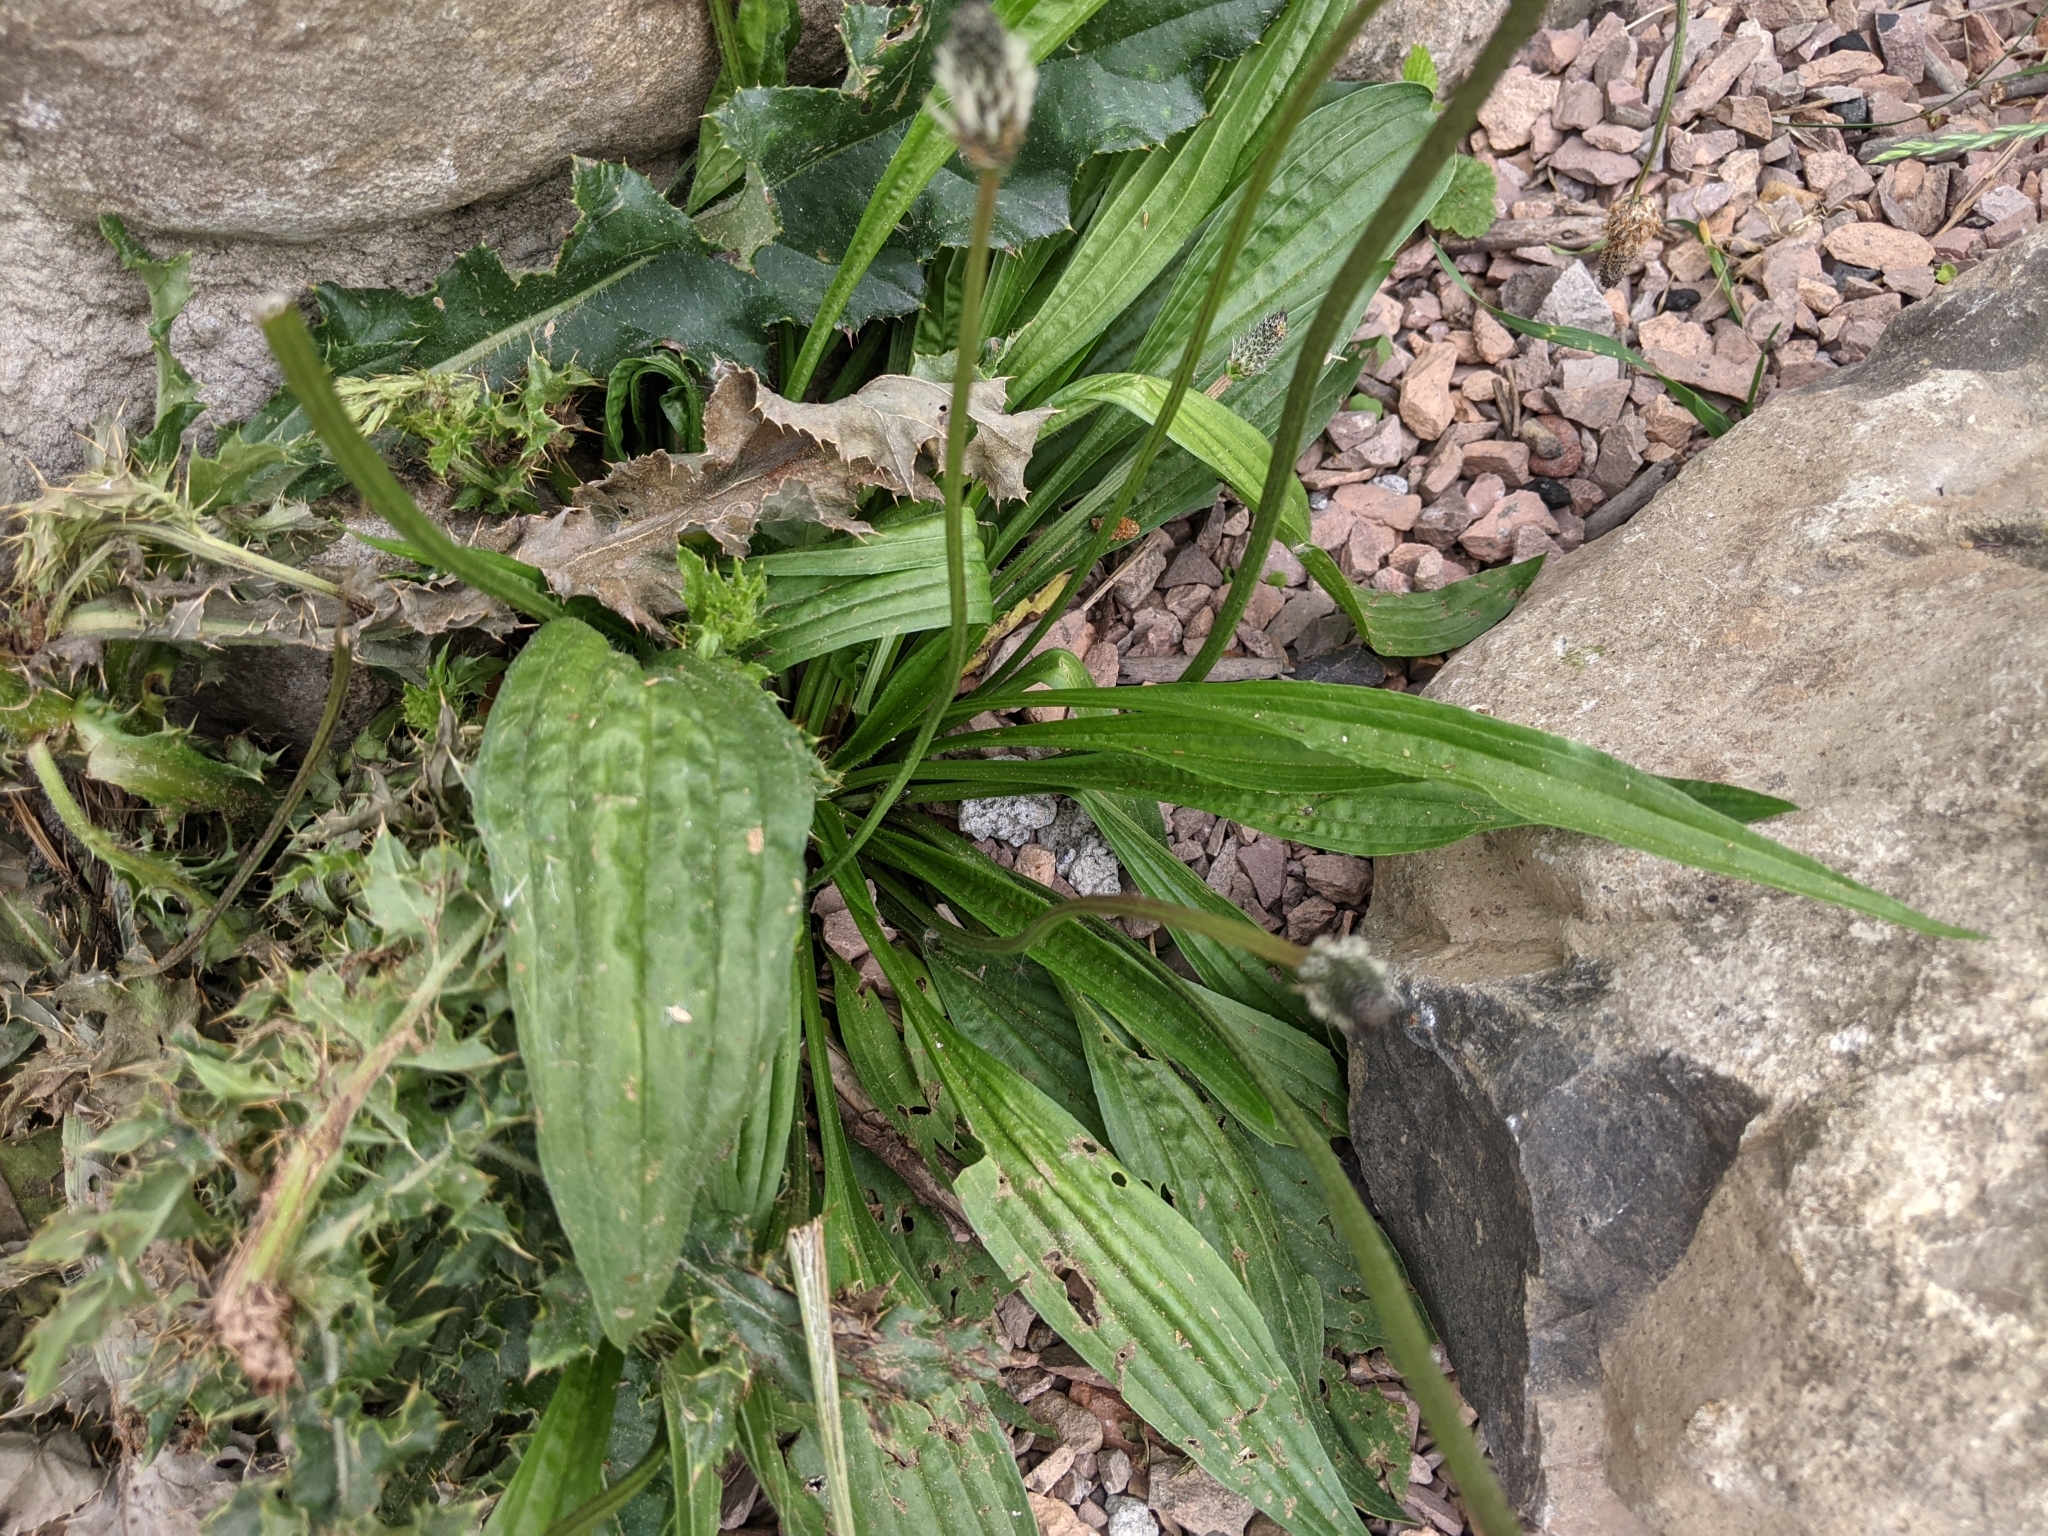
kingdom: Plantae
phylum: Tracheophyta
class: Magnoliopsida
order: Lamiales
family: Plantaginaceae
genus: Plantago
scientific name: Plantago lanceolata
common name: Ribwort plantain
